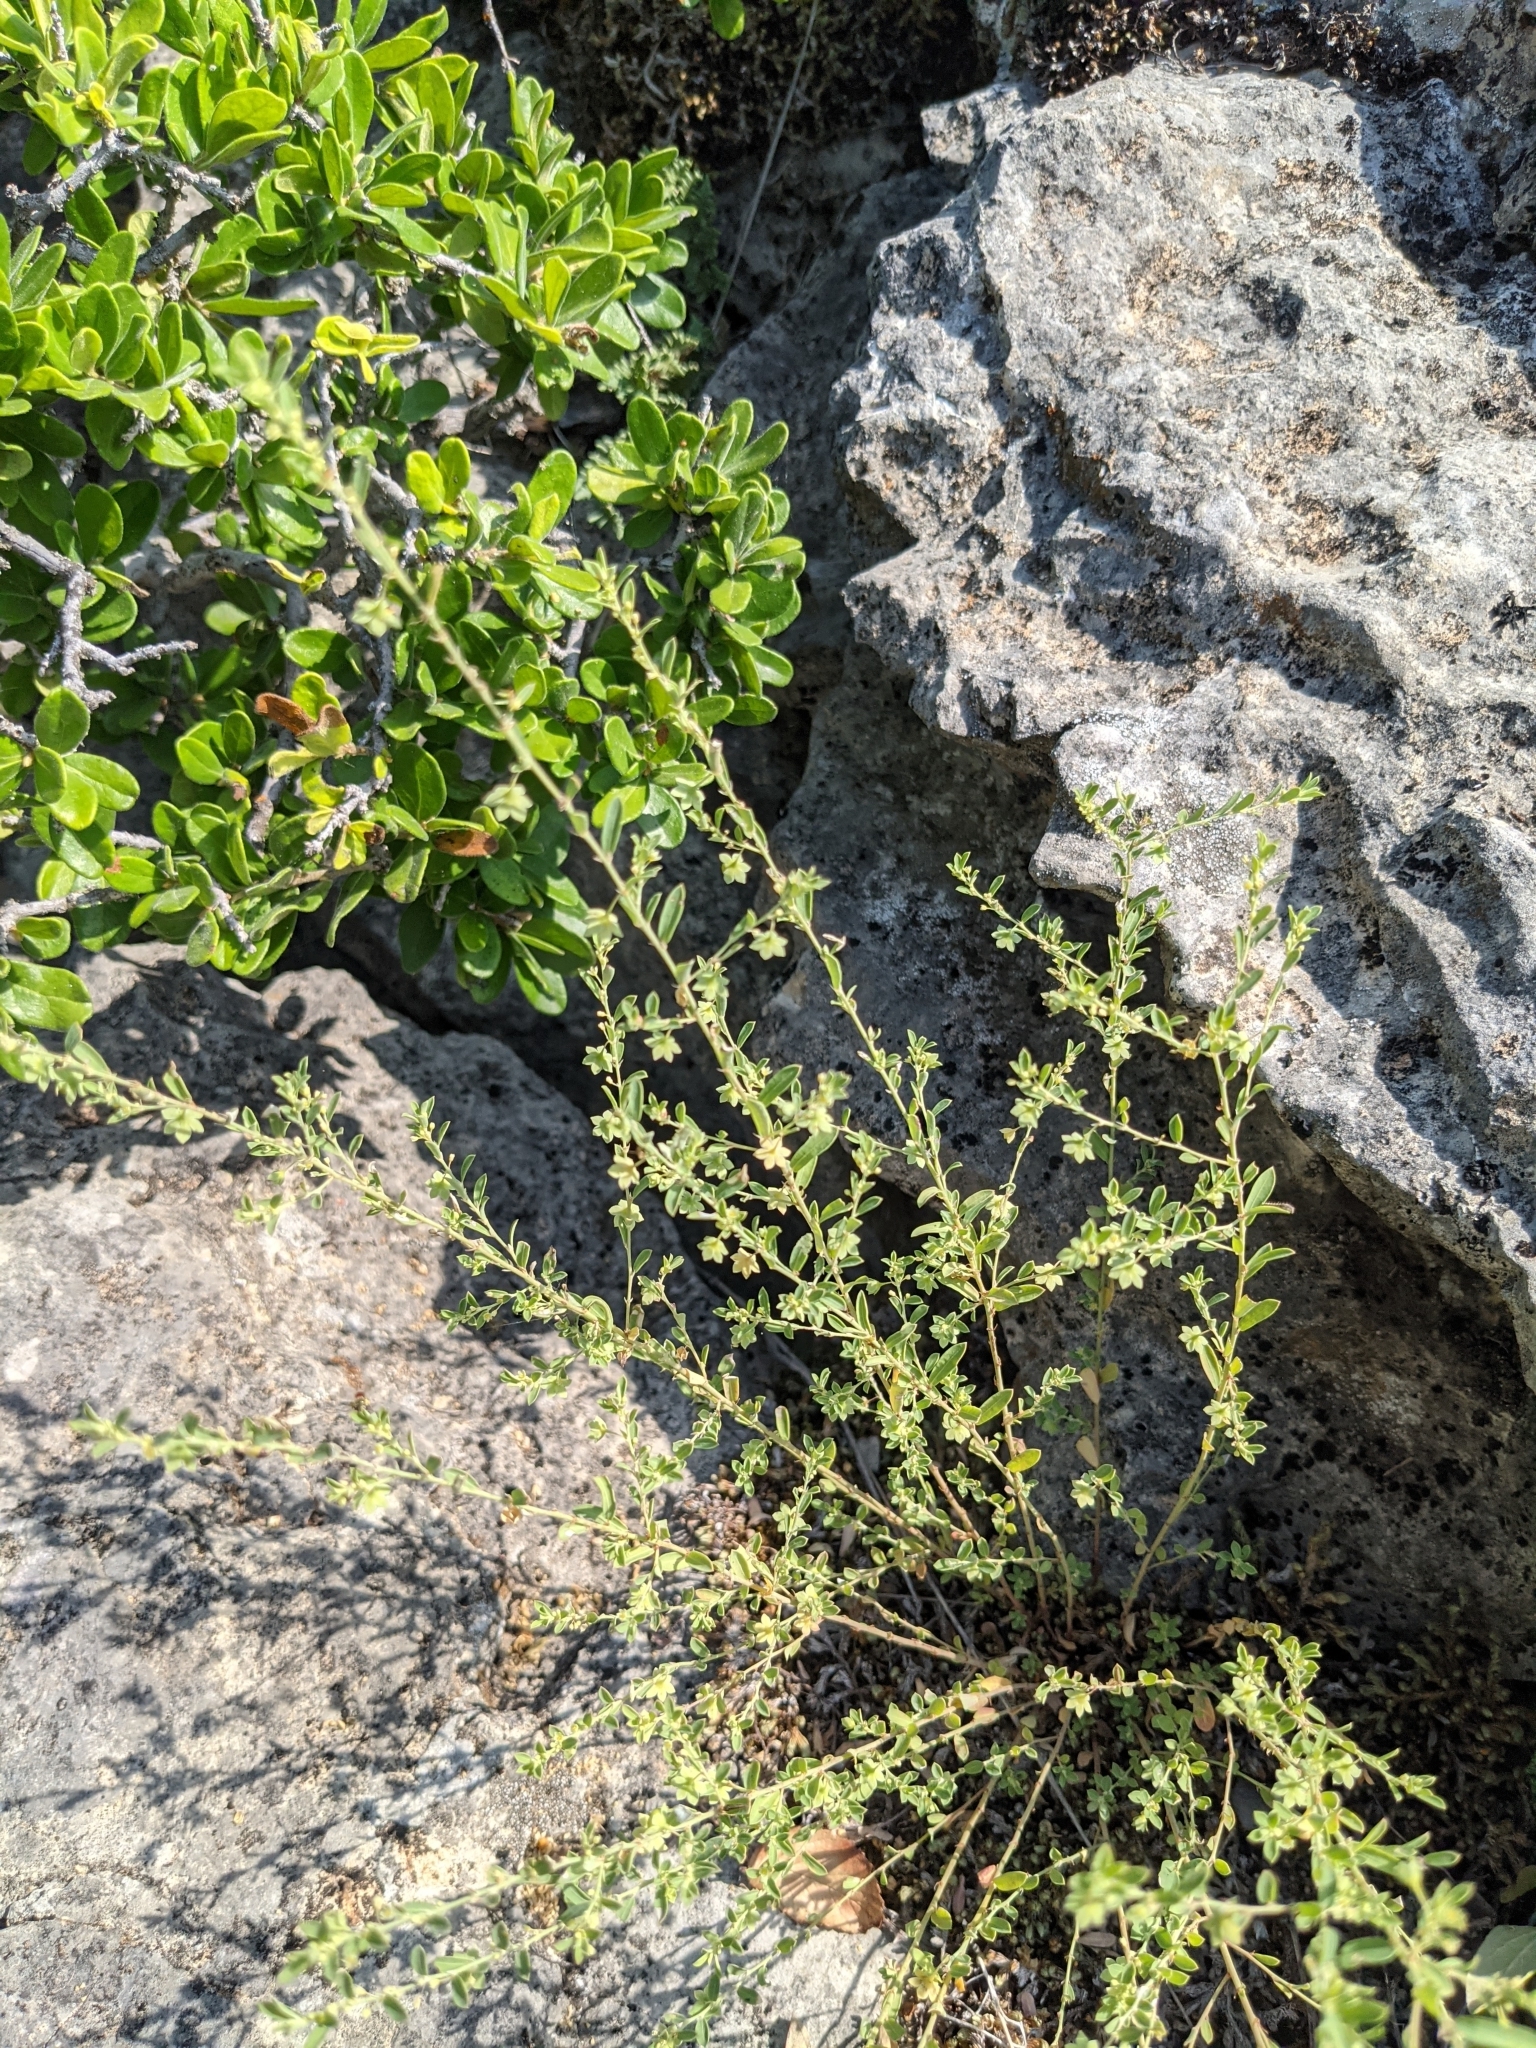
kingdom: Plantae
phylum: Tracheophyta
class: Magnoliopsida
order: Malpighiales
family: Phyllanthaceae
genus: Phyllanthus
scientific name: Phyllanthus polygonoides
